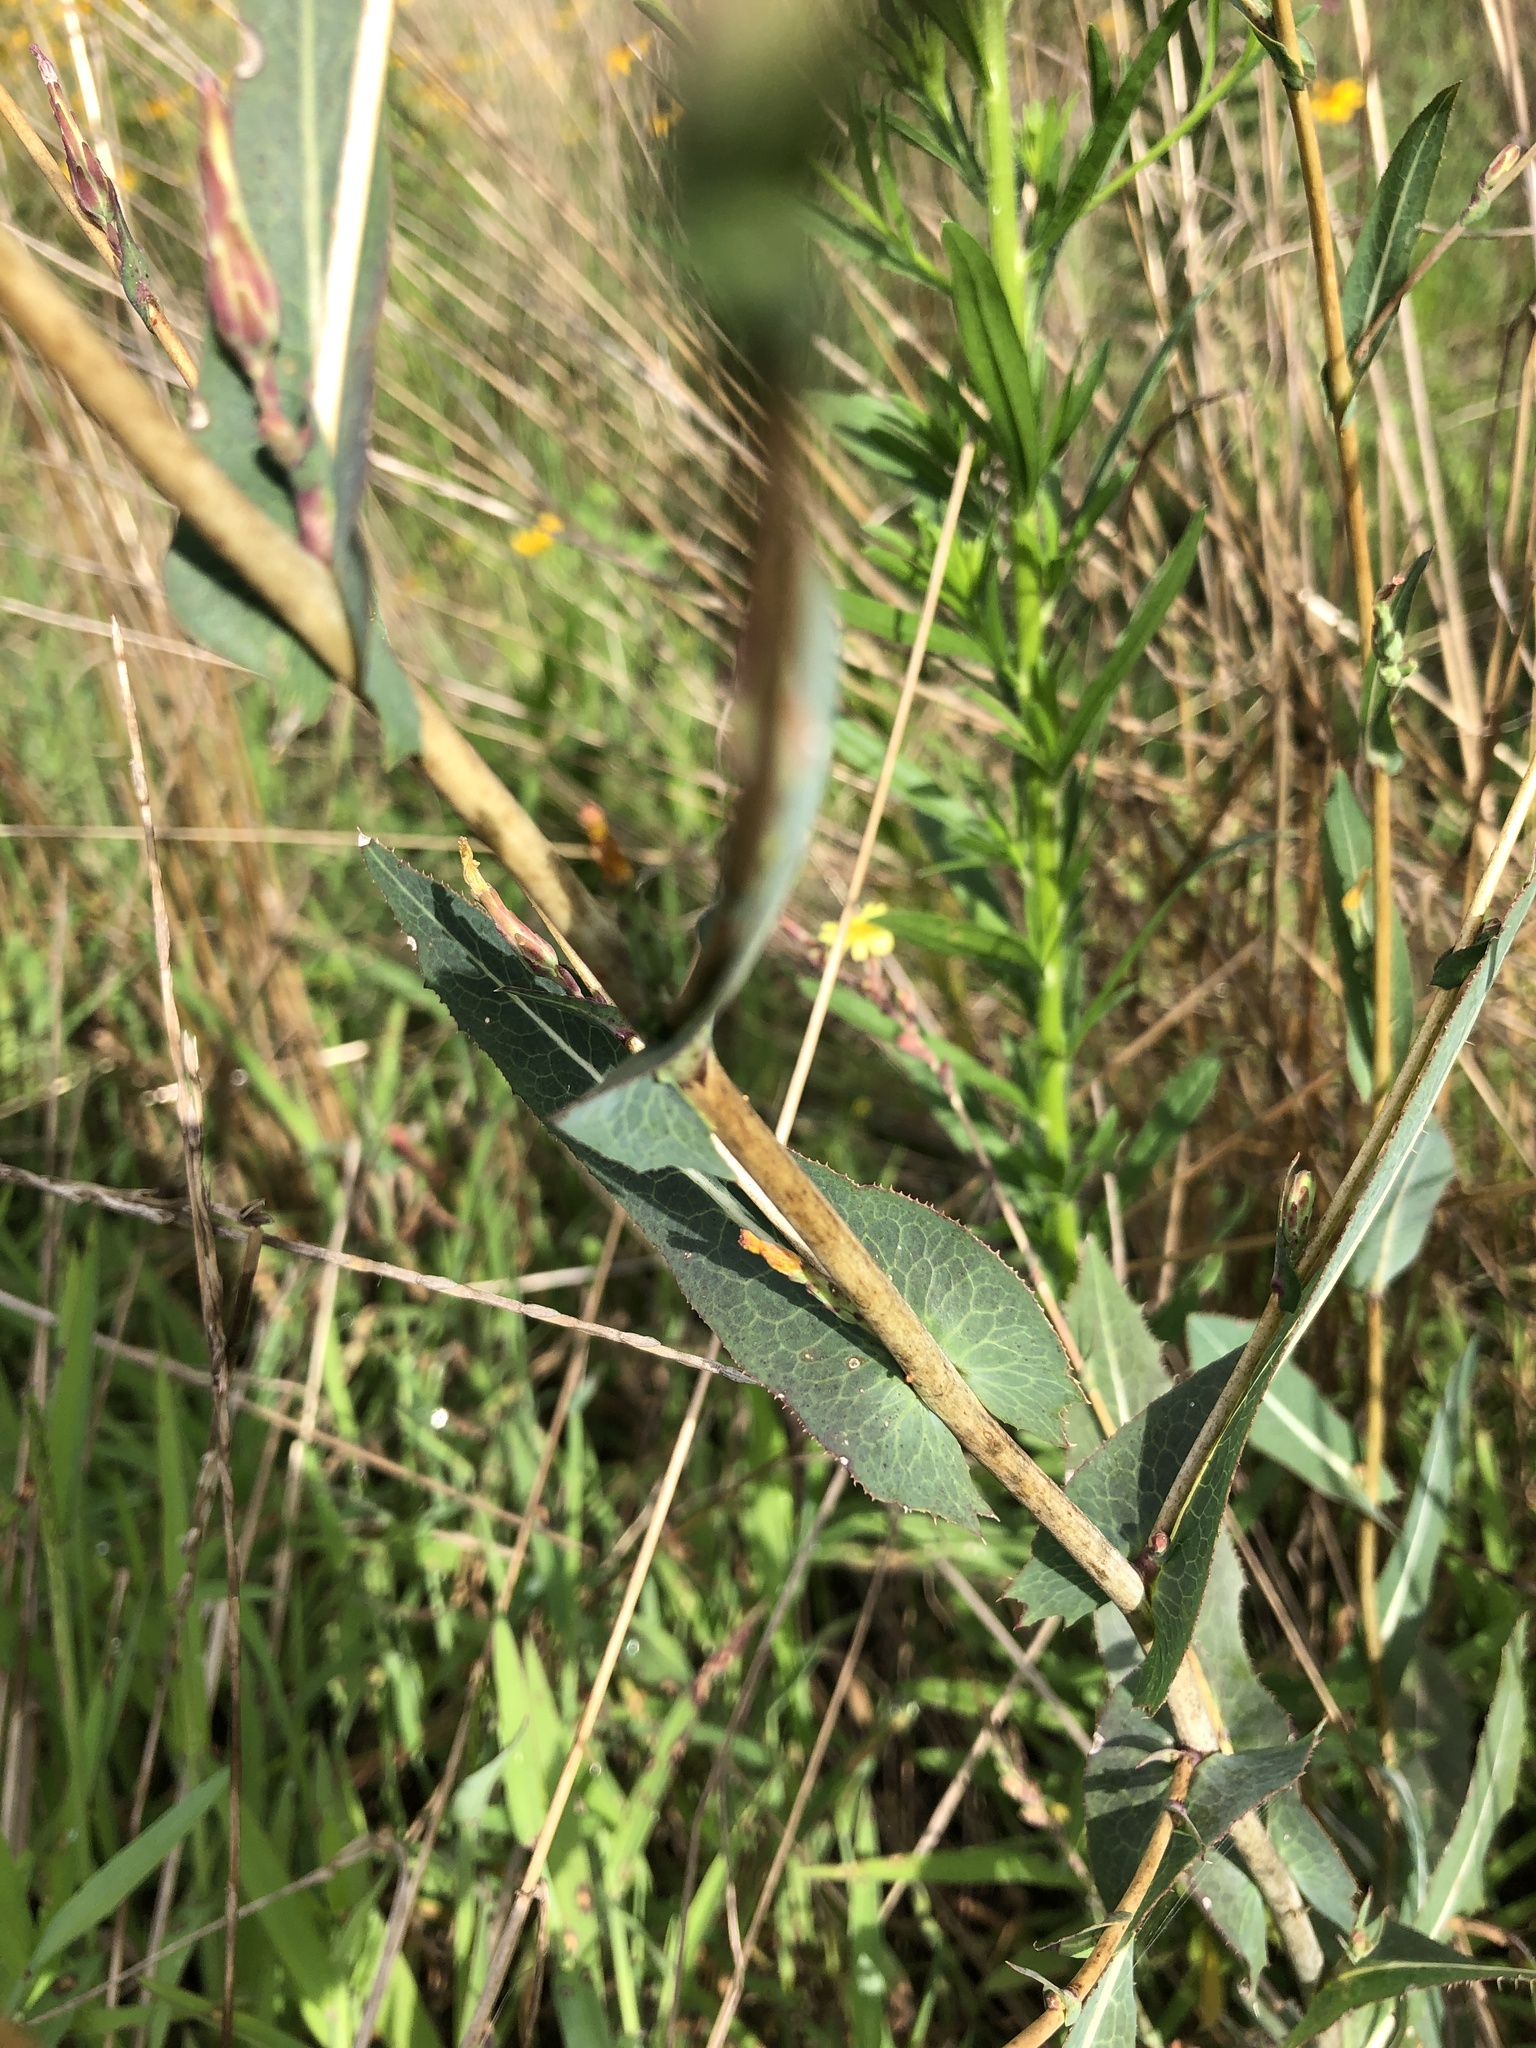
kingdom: Plantae
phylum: Tracheophyta
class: Magnoliopsida
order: Asterales
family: Asteraceae
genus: Lactuca
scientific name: Lactuca serriola
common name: Prickly lettuce
